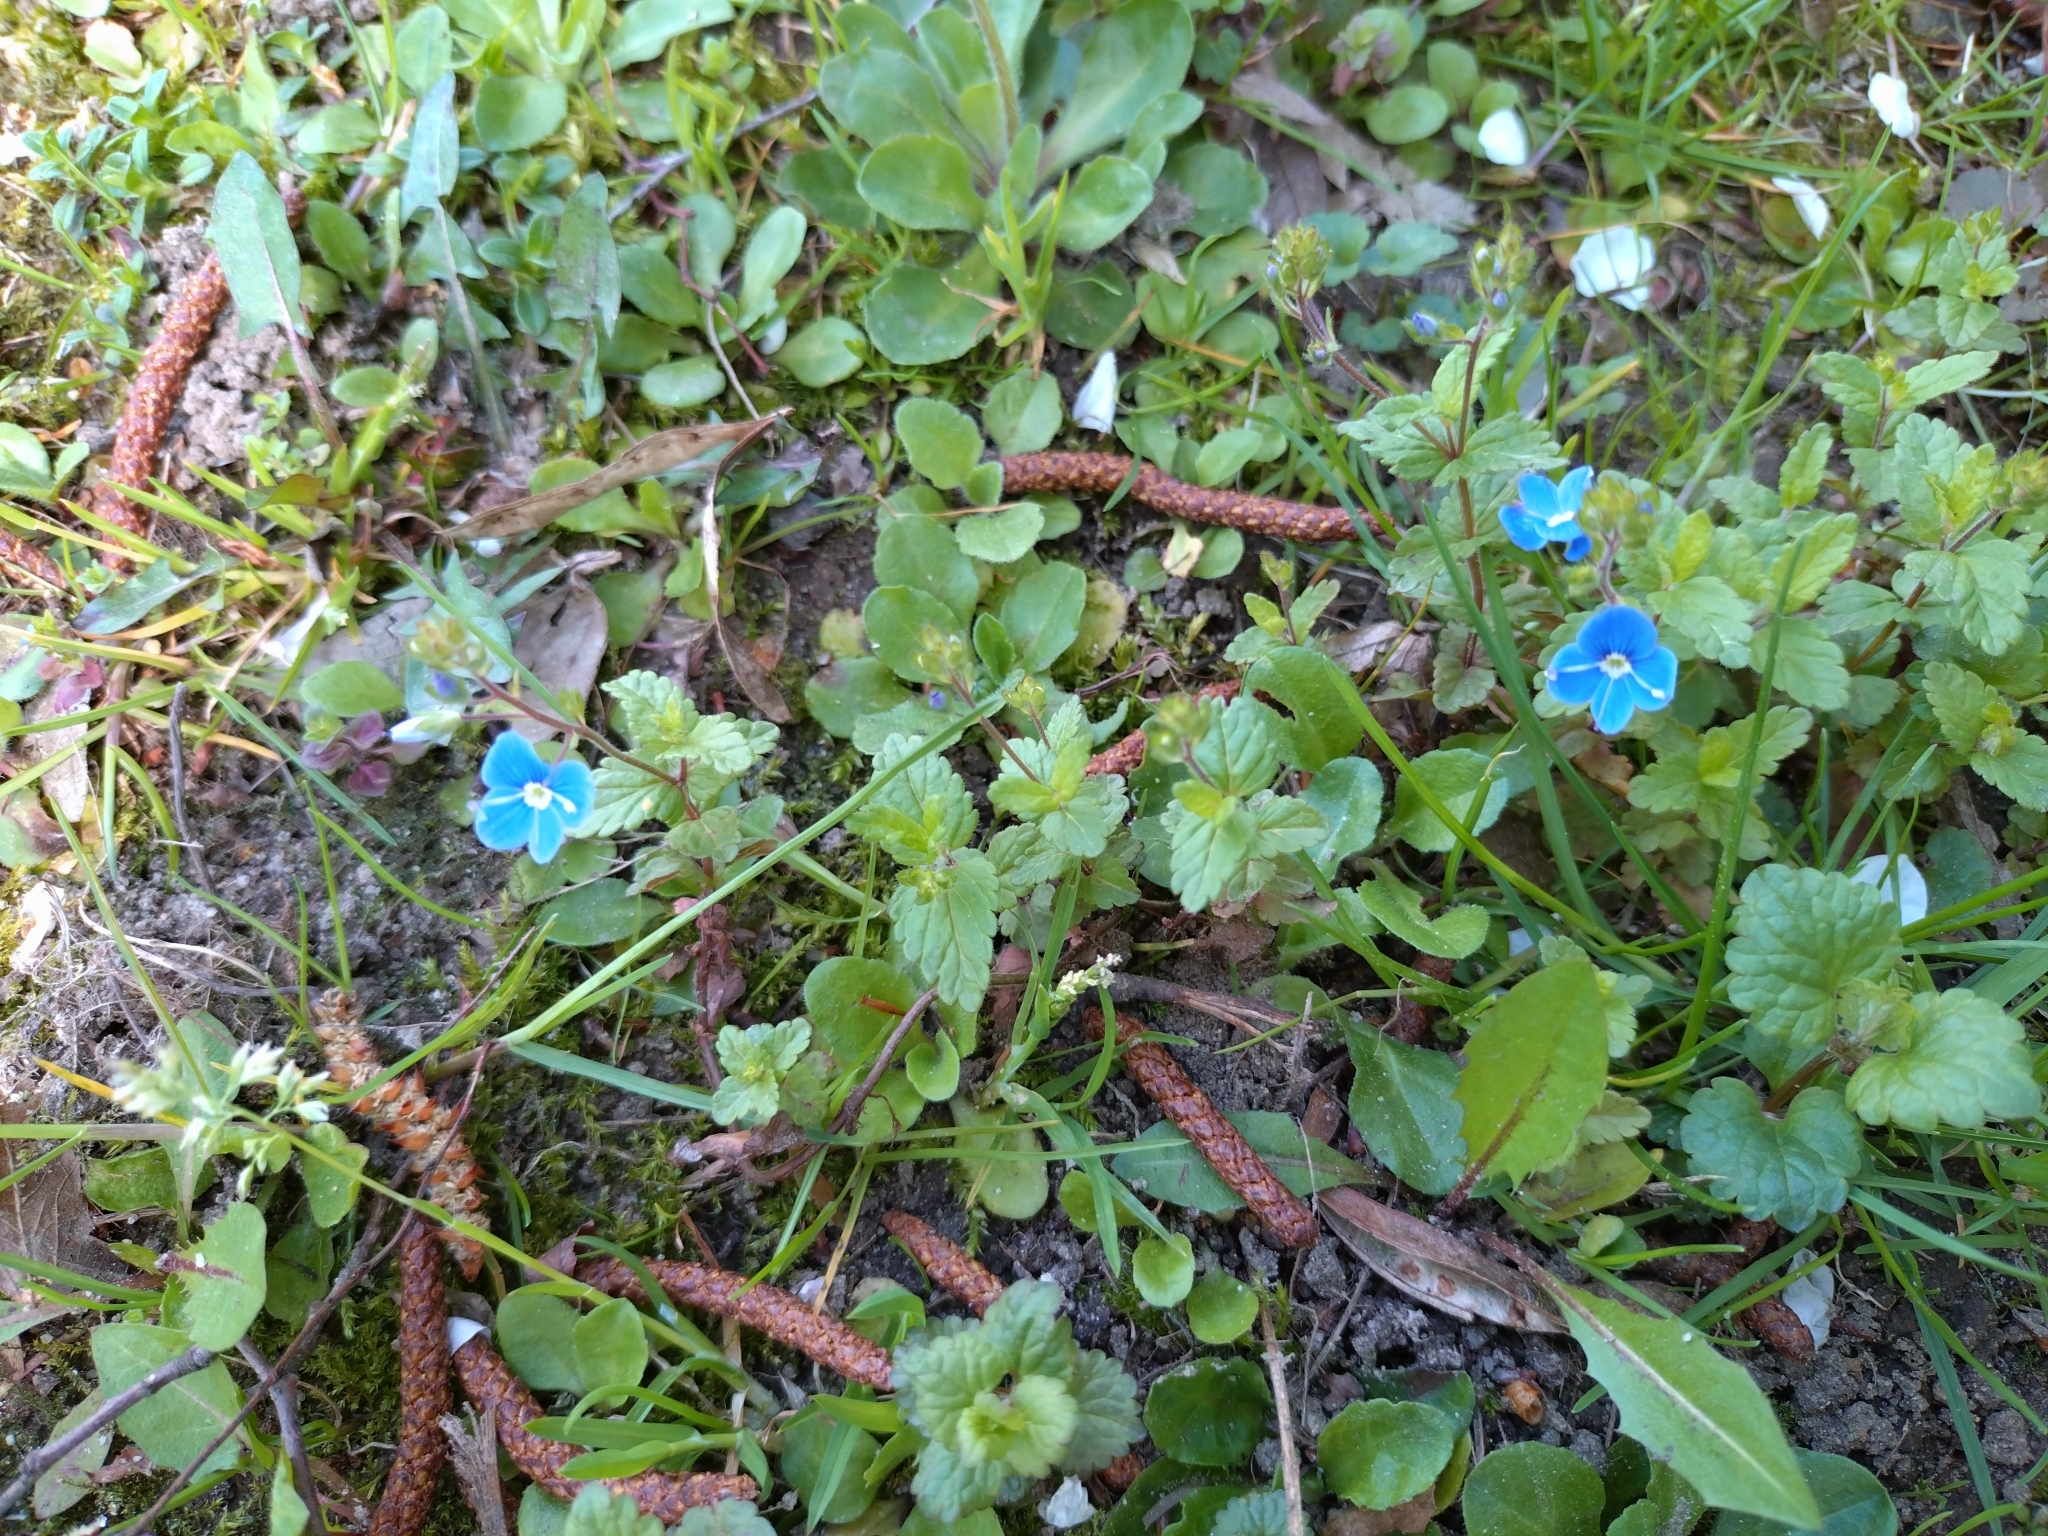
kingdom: Plantae
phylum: Tracheophyta
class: Magnoliopsida
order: Lamiales
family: Plantaginaceae
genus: Veronica
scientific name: Veronica chamaedrys
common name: Germander speedwell
